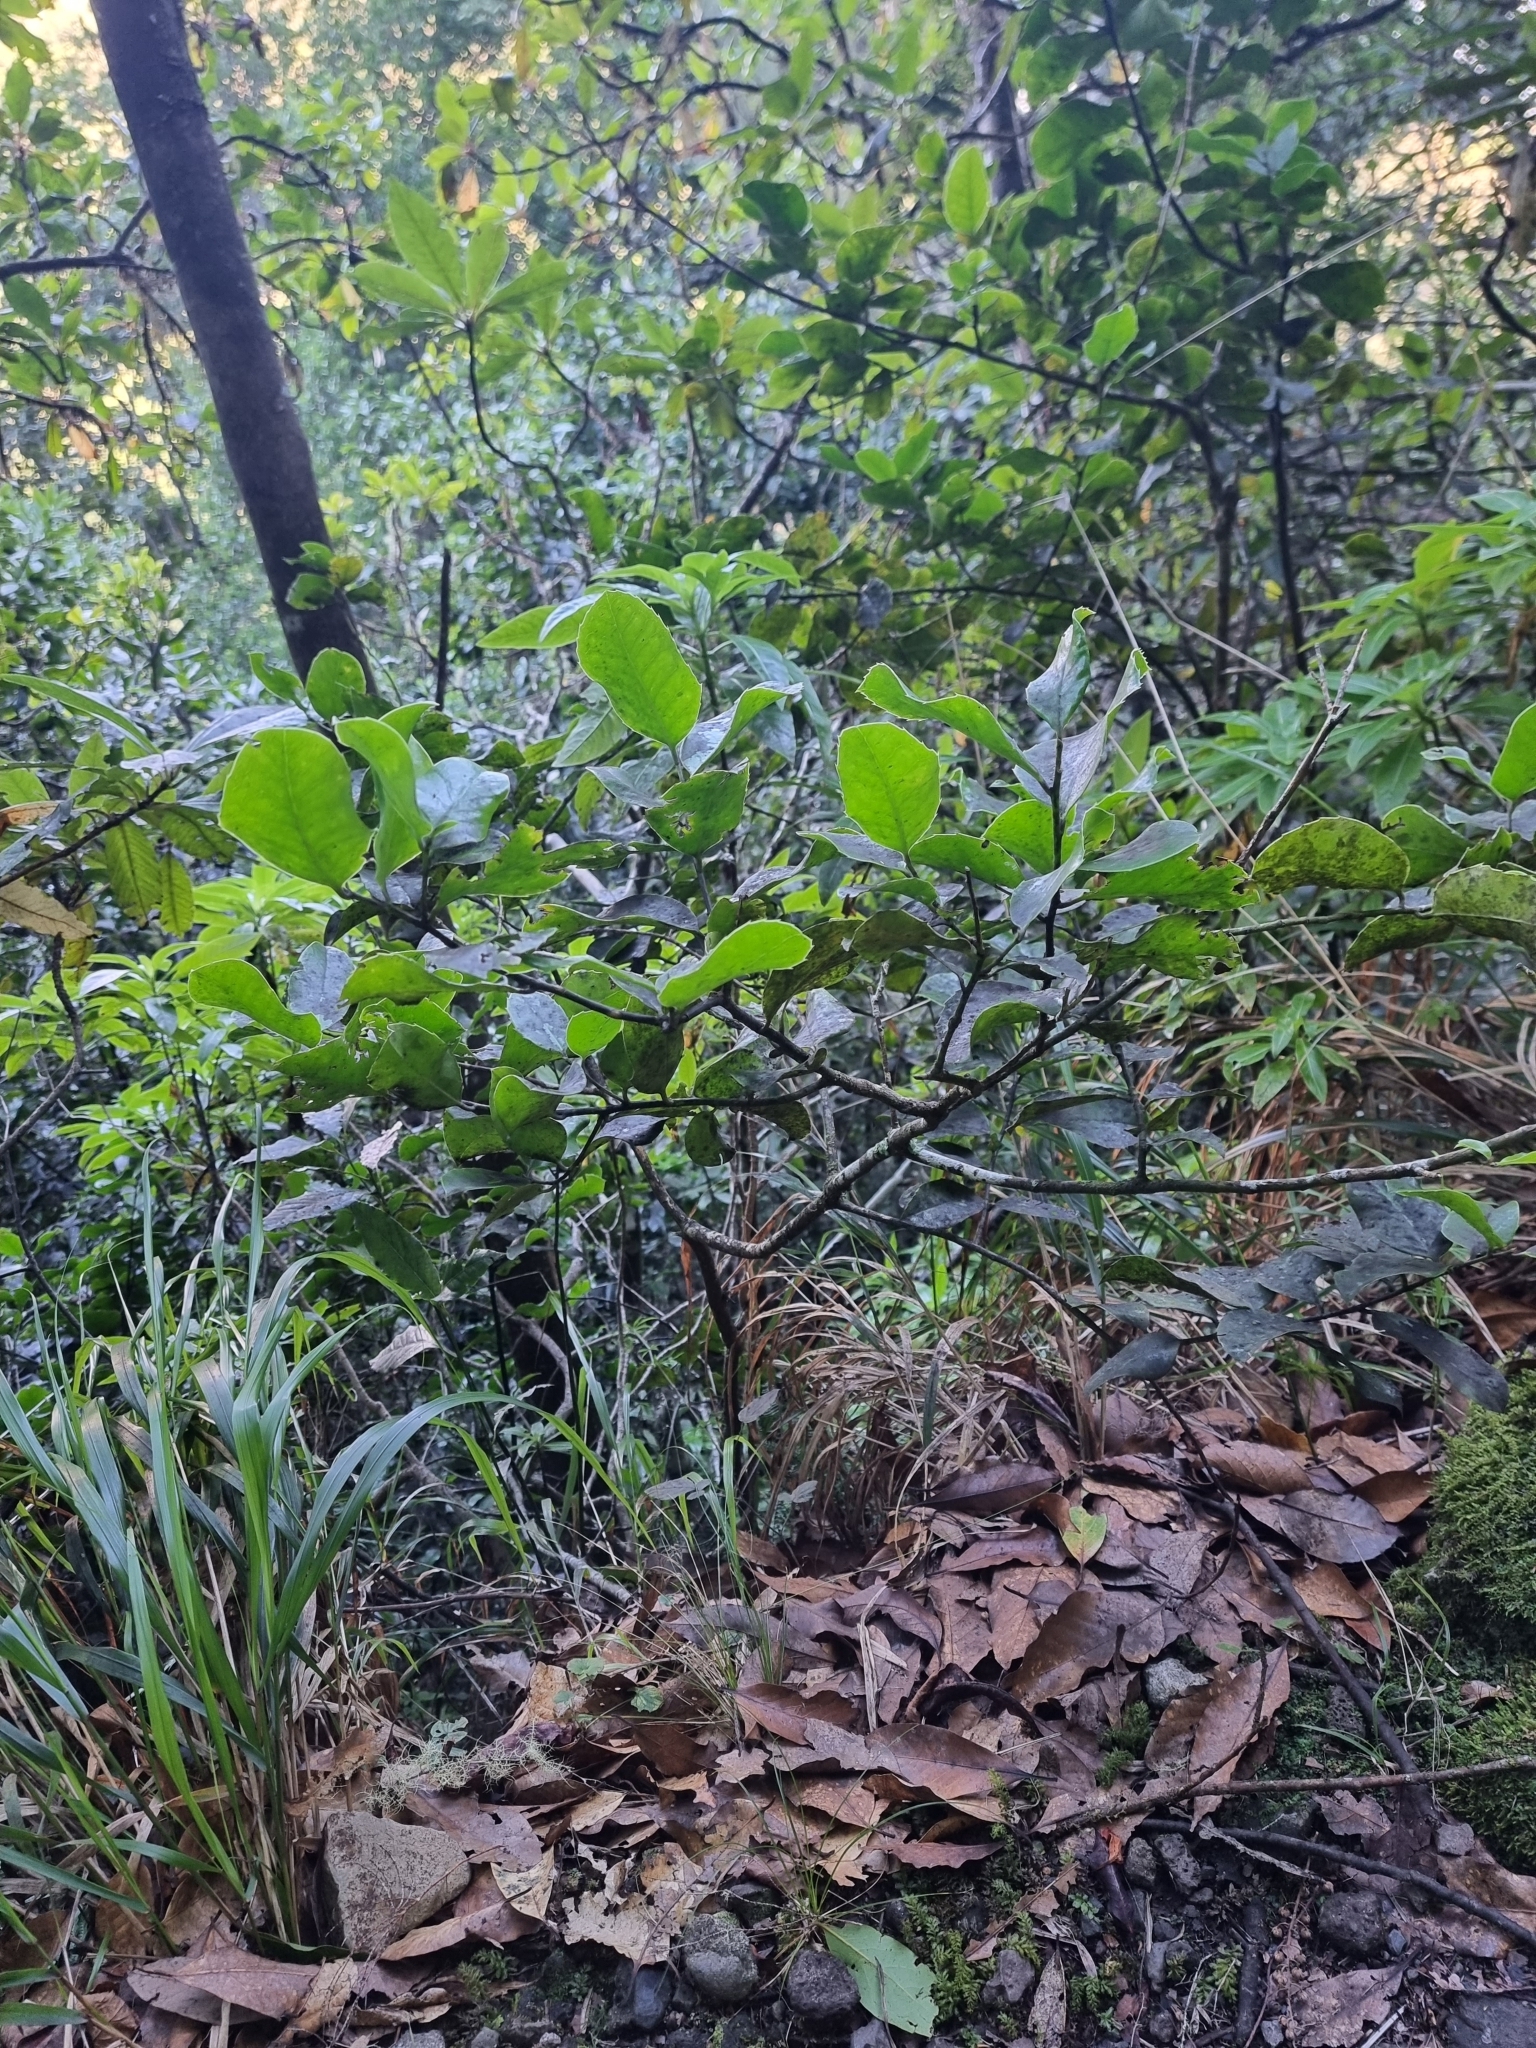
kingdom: Plantae
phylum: Tracheophyta
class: Magnoliopsida
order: Aquifoliales
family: Aquifoliaceae
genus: Ilex
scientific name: Ilex perado
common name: Madeira holly
